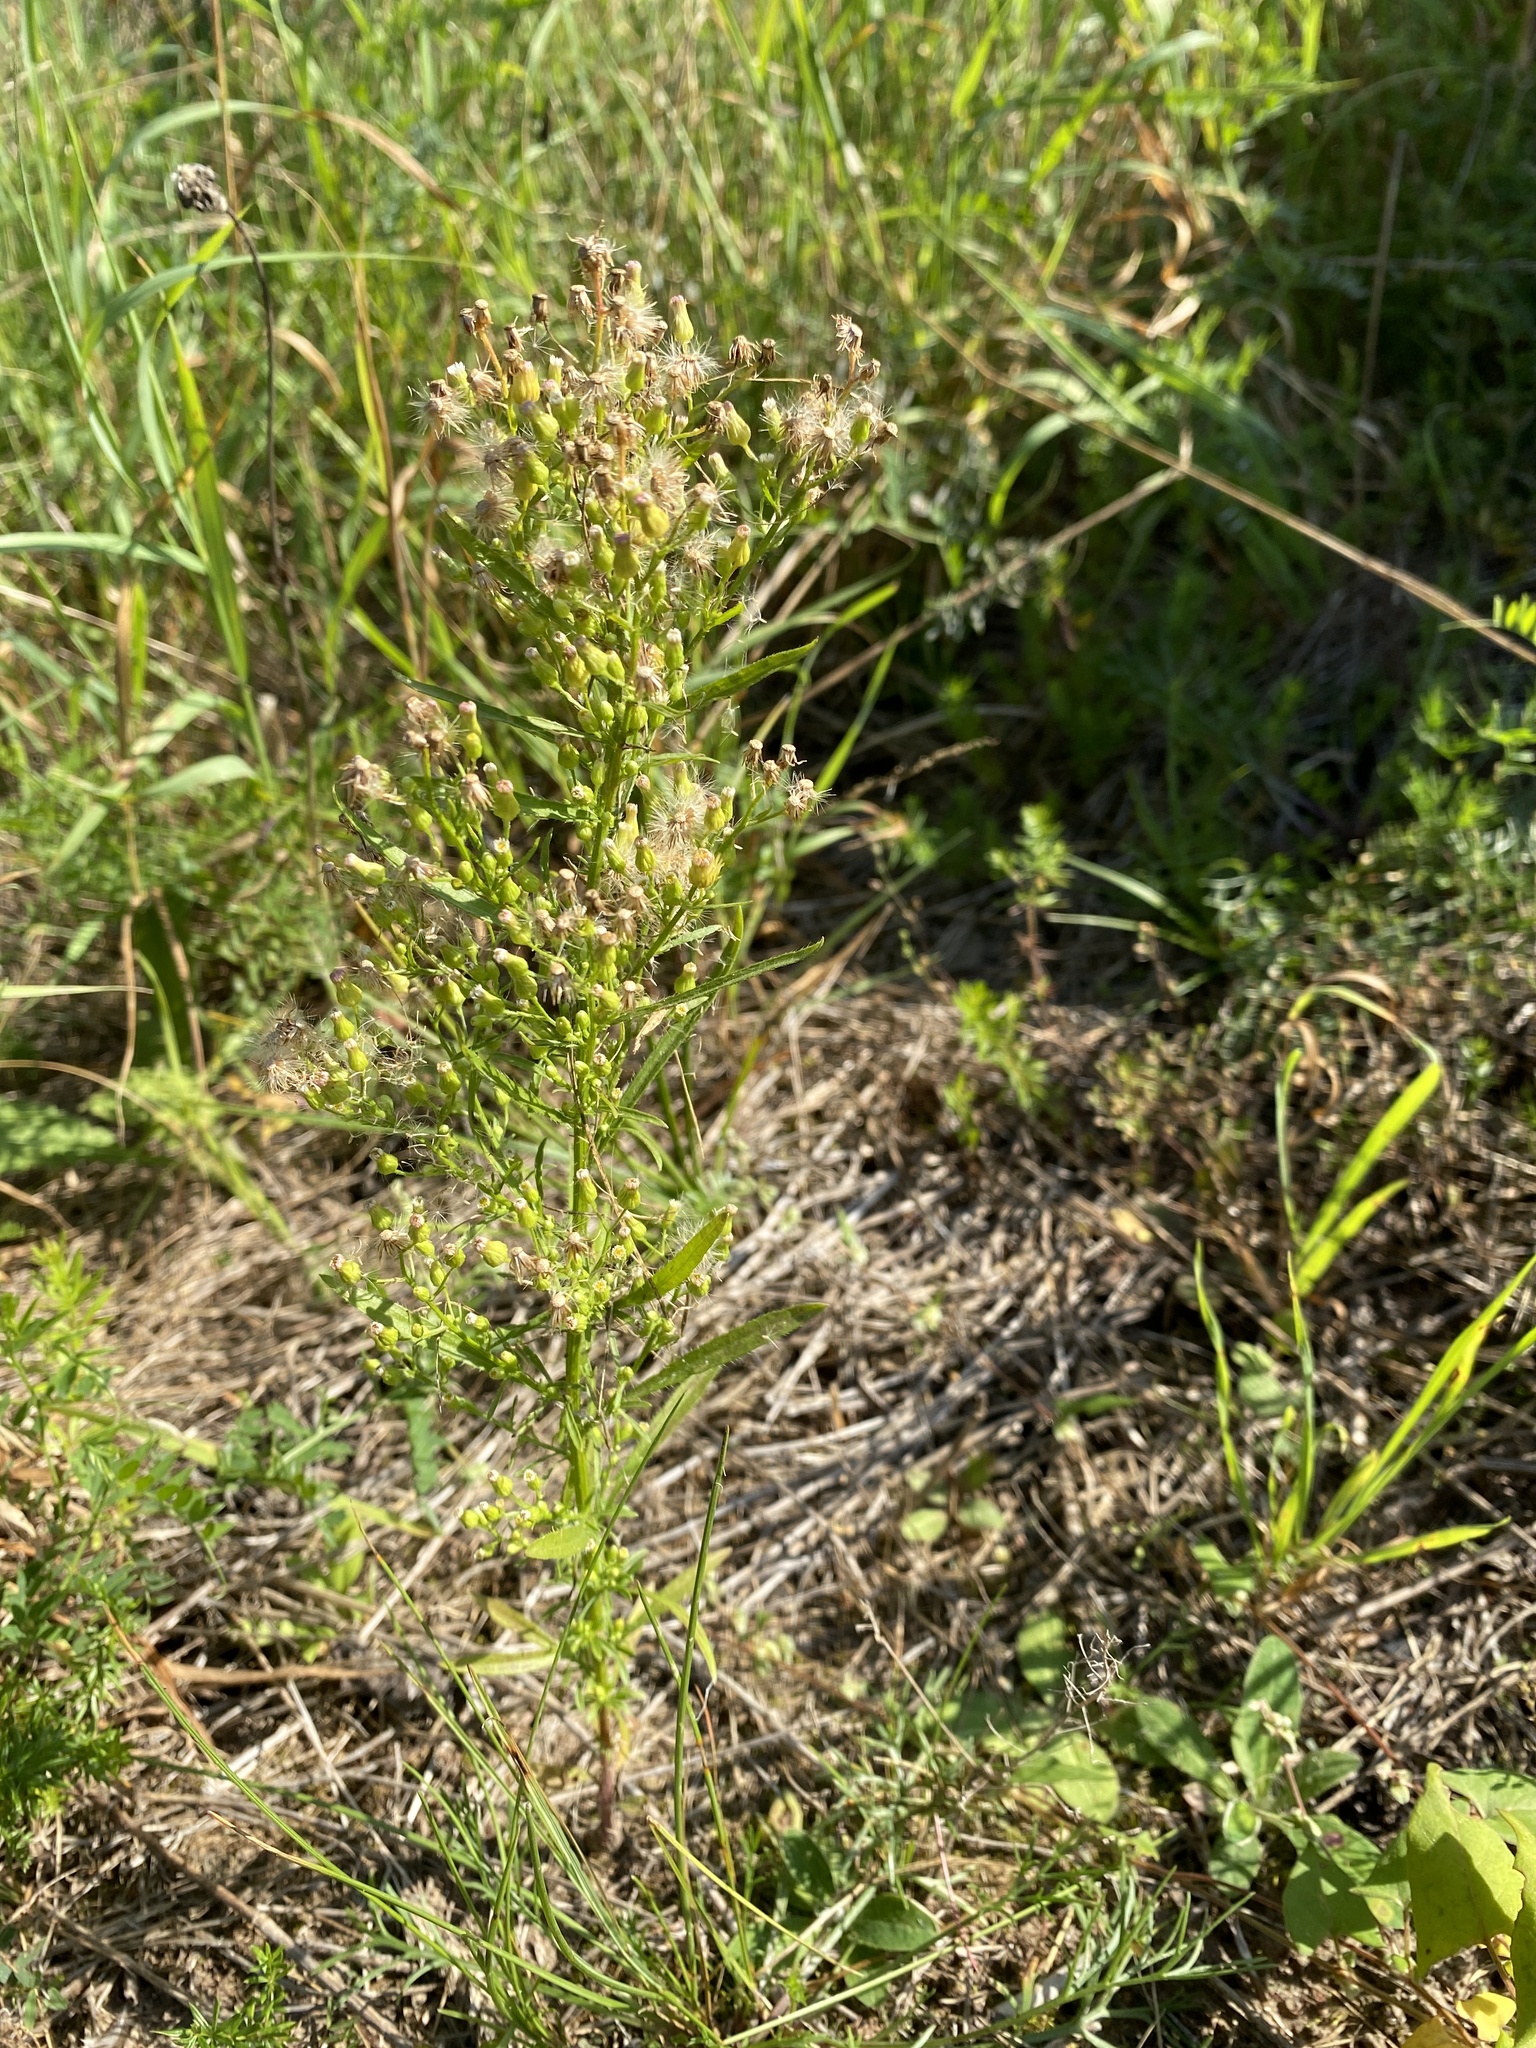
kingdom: Plantae
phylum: Tracheophyta
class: Magnoliopsida
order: Asterales
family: Asteraceae
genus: Erigeron
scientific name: Erigeron canadensis
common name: Canadian fleabane
